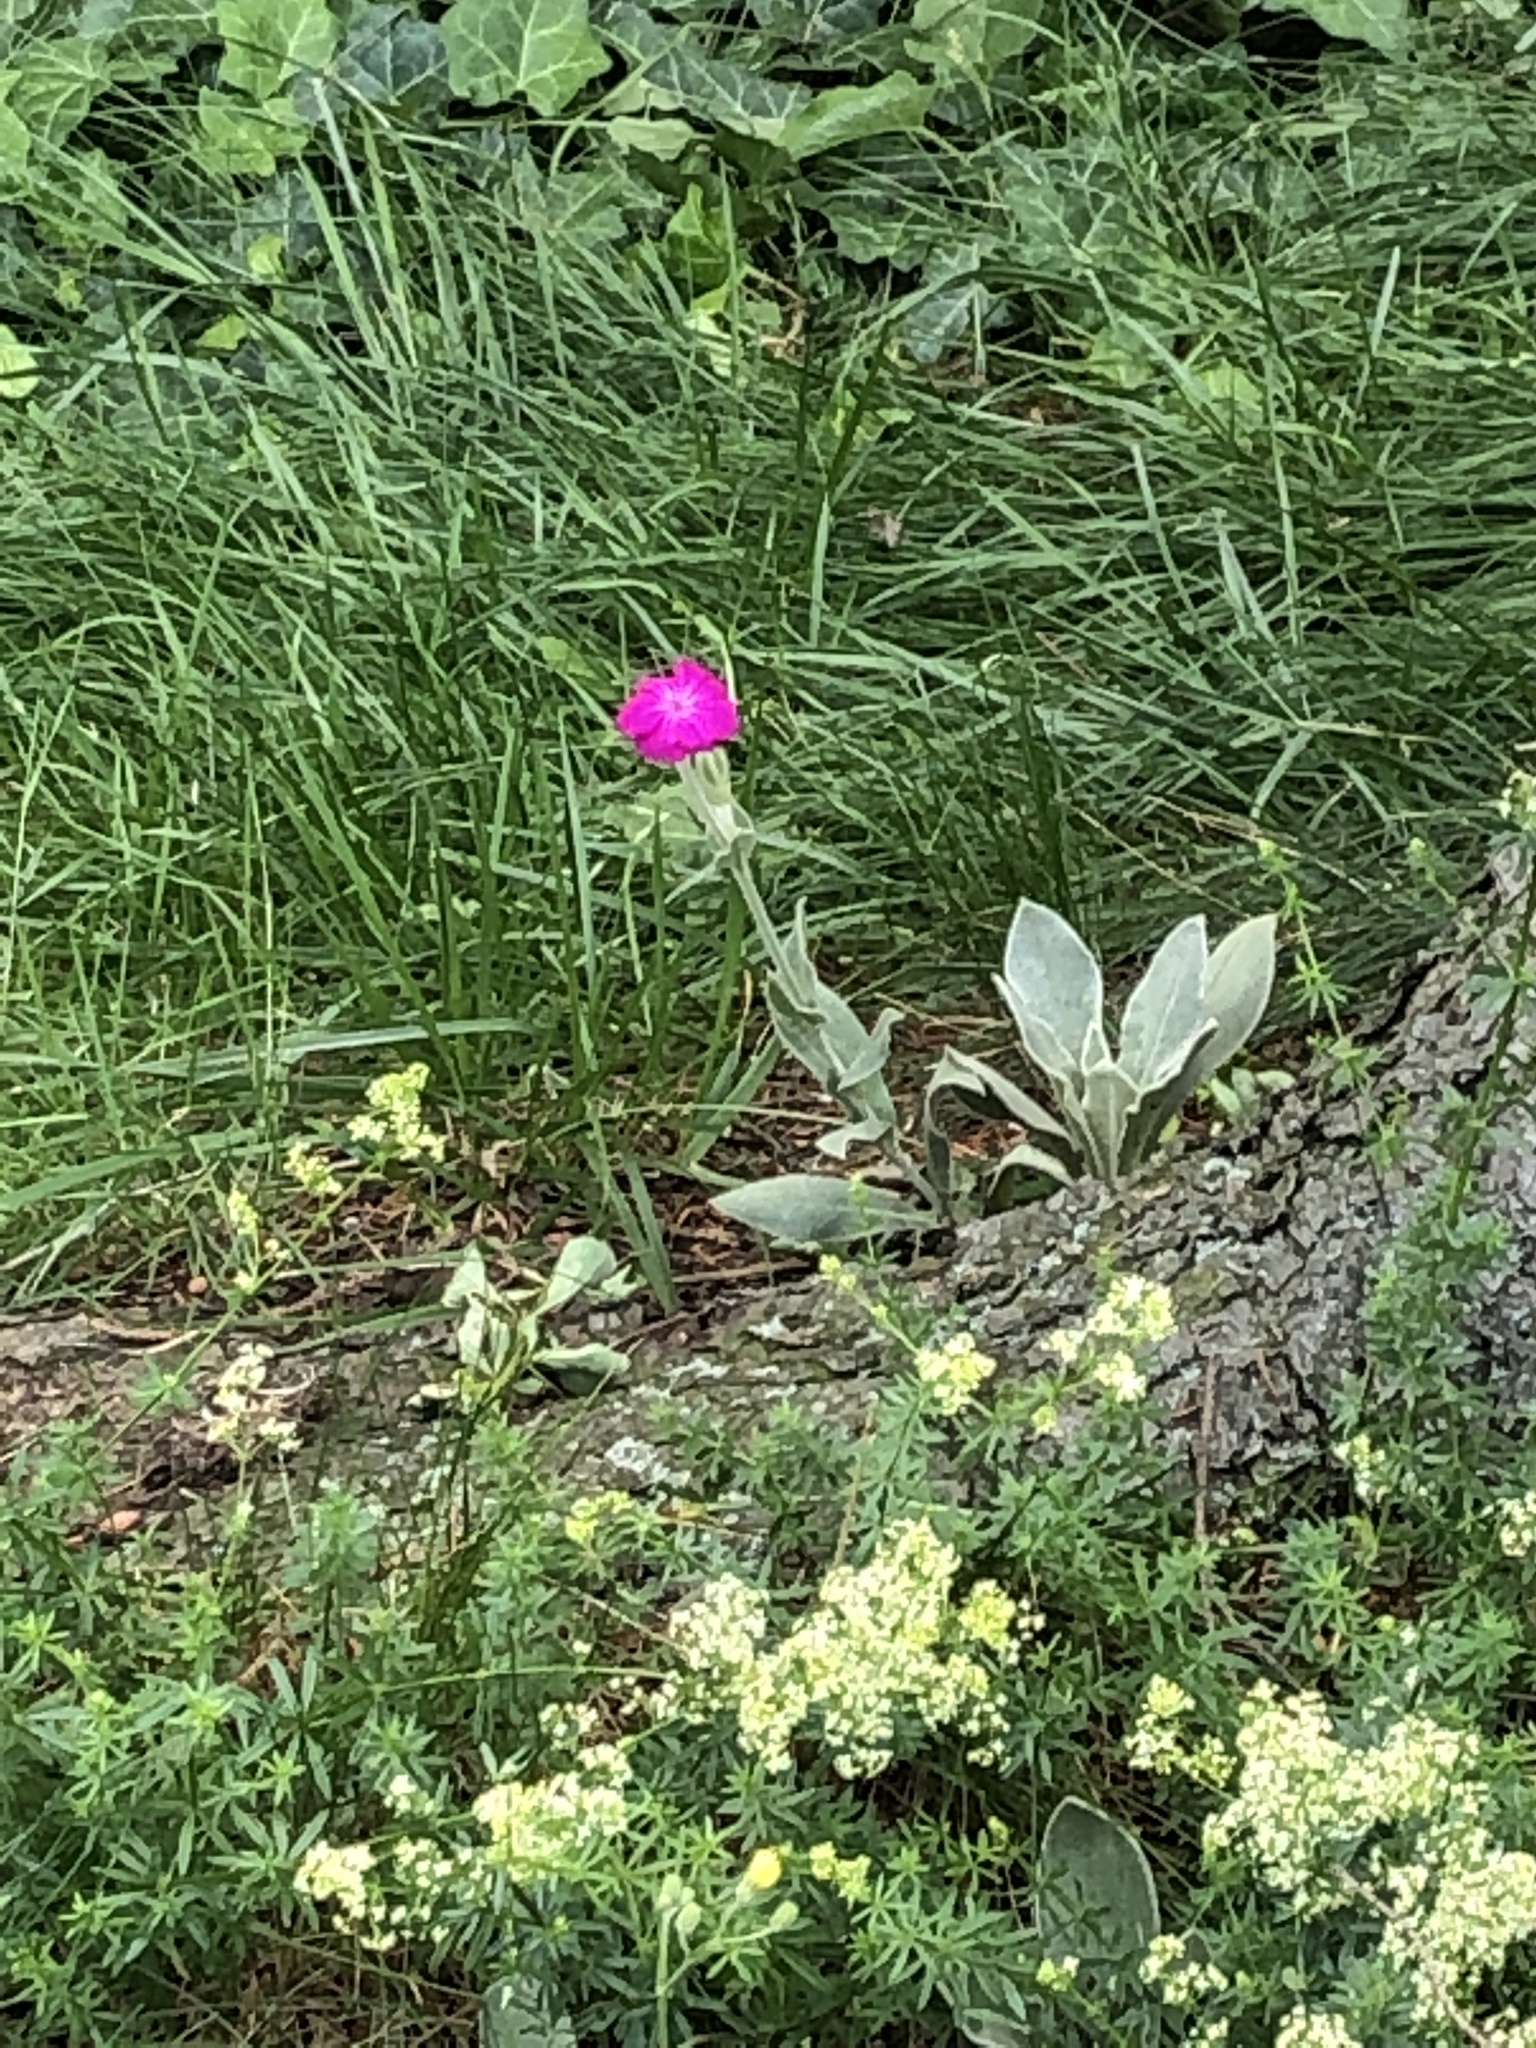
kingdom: Plantae
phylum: Tracheophyta
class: Magnoliopsida
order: Caryophyllales
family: Caryophyllaceae
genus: Silene
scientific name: Silene coronaria
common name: Rose campion
